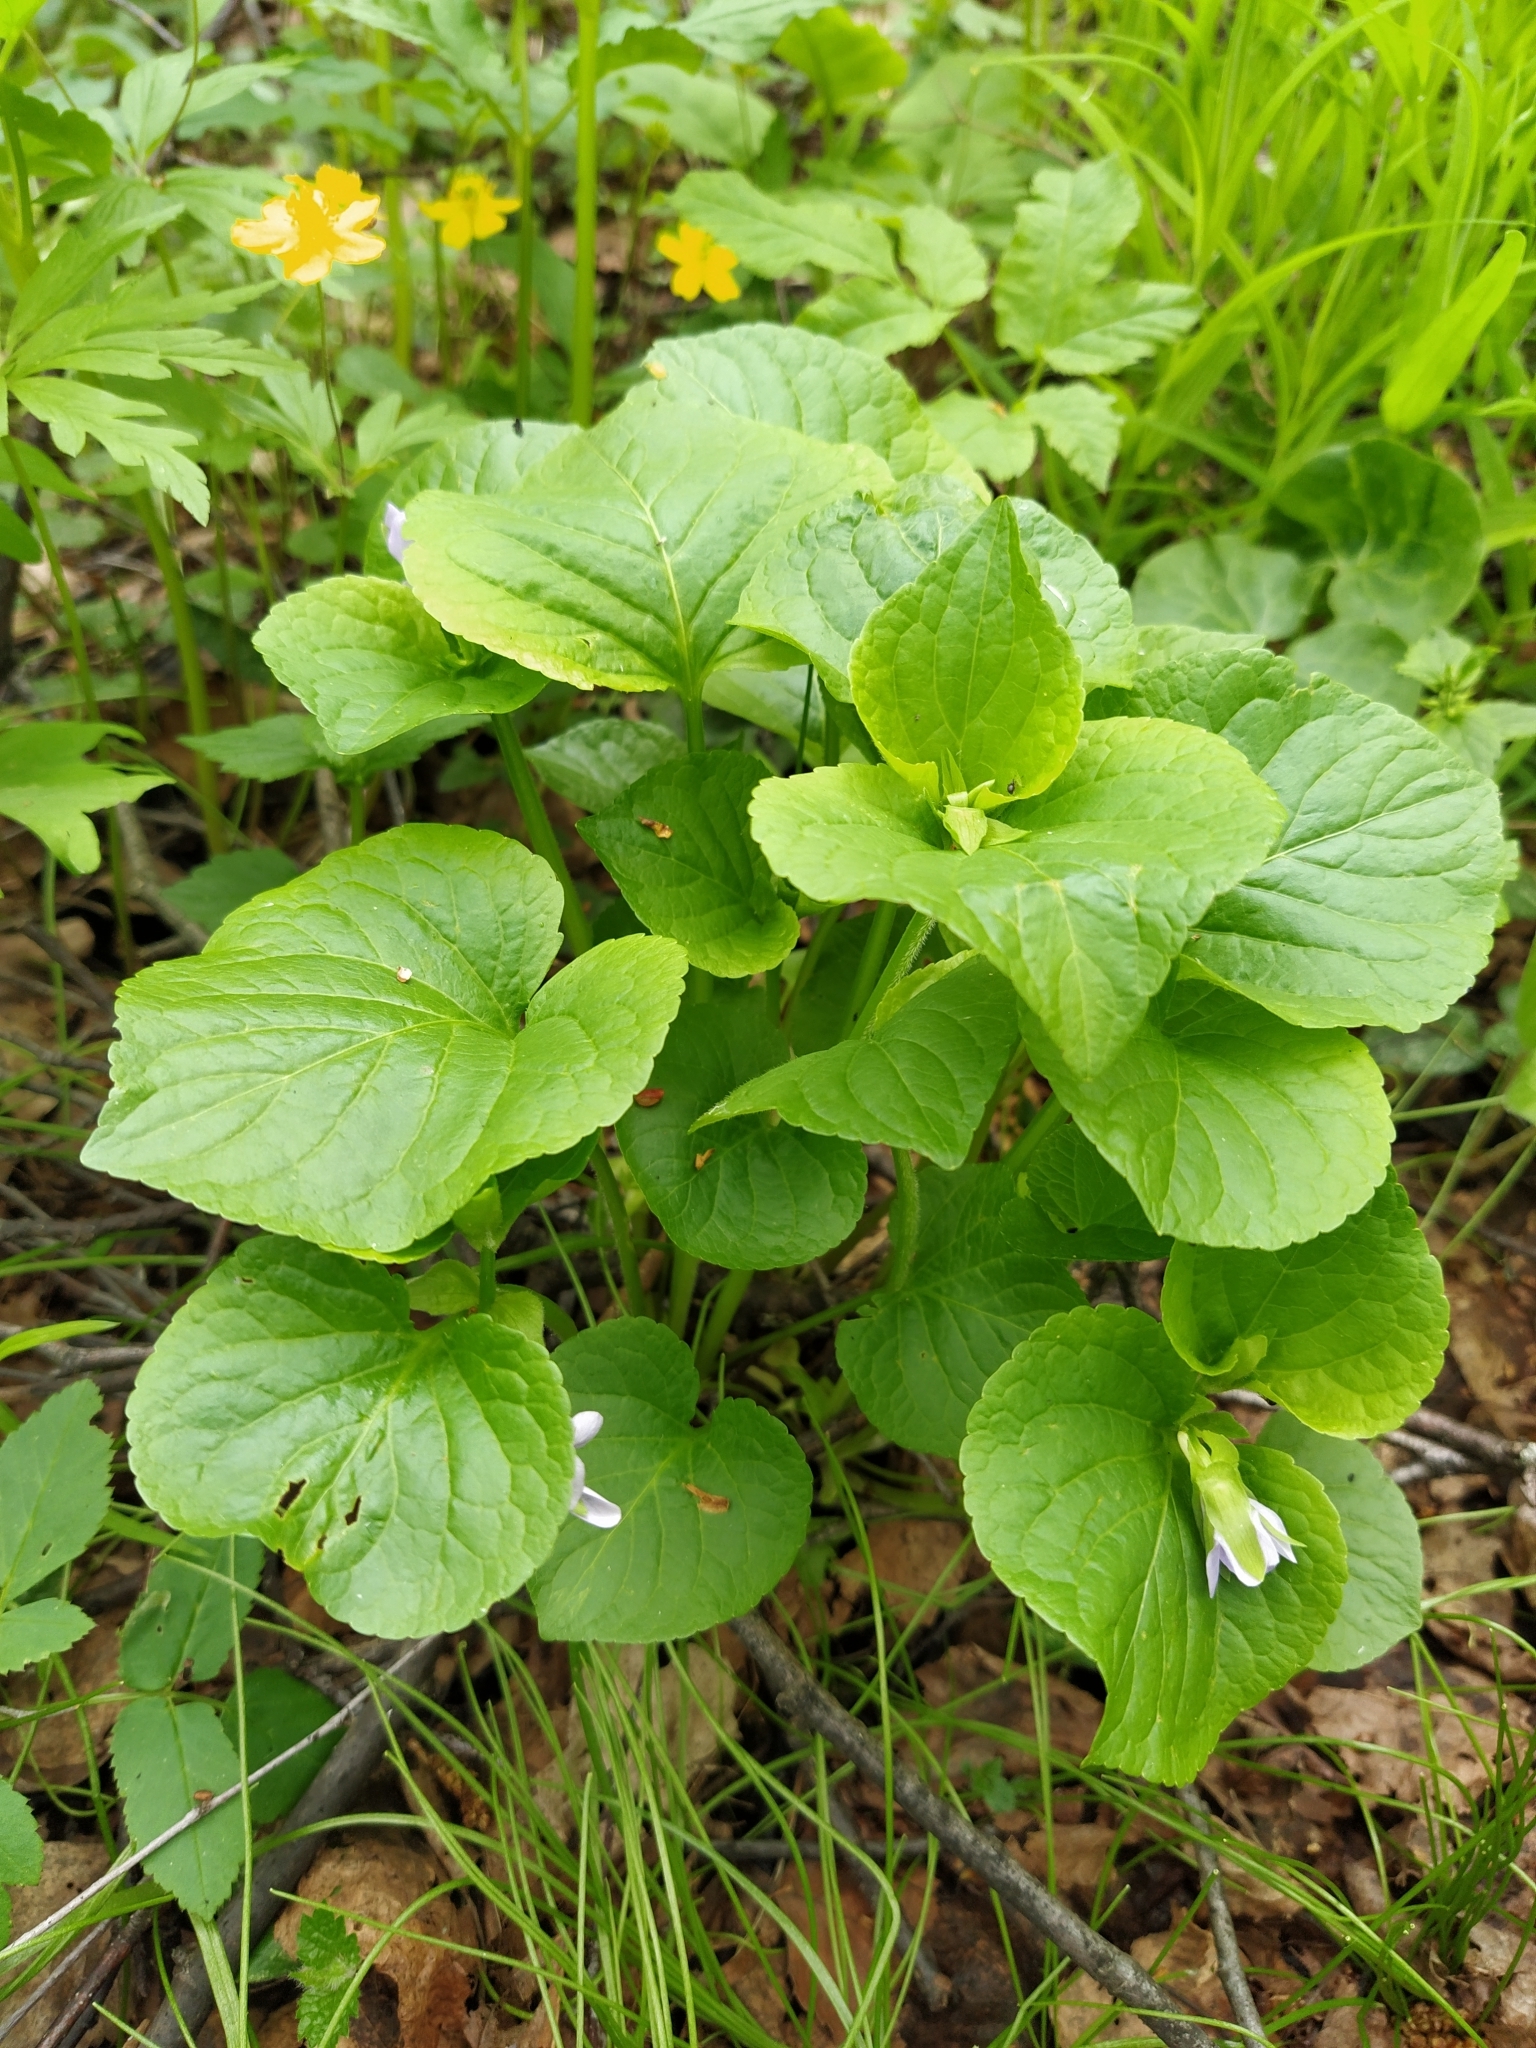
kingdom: Plantae
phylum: Tracheophyta
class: Magnoliopsida
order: Malpighiales
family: Violaceae
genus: Viola
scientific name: Viola mirabilis
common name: Wonder violet
